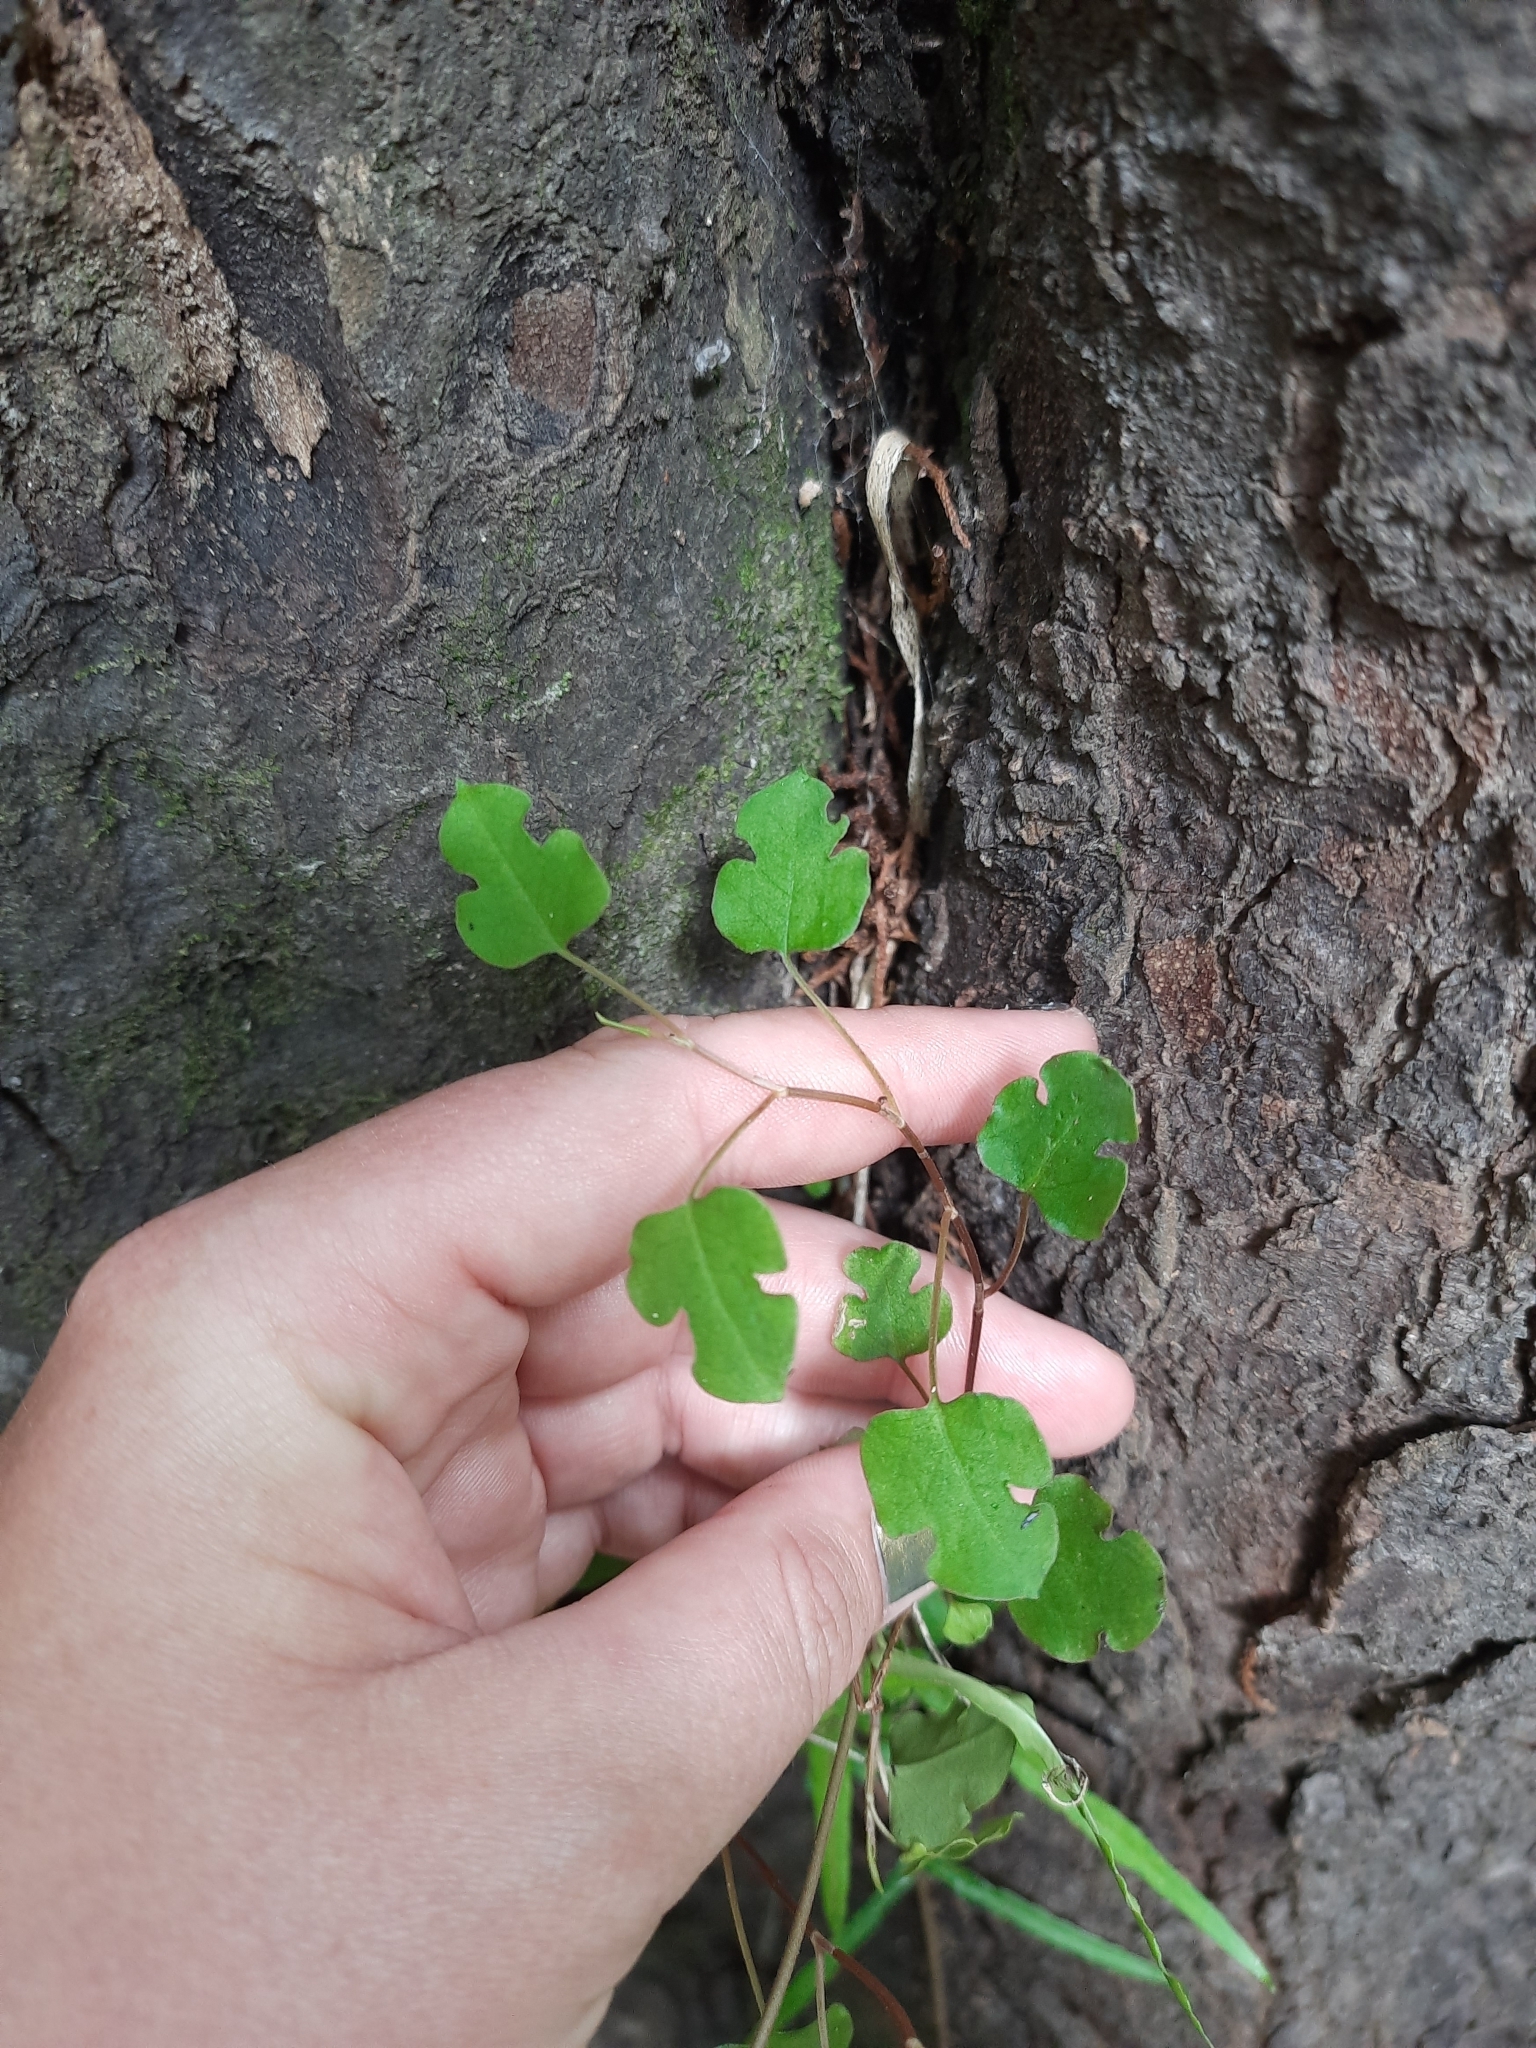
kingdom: Plantae
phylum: Tracheophyta
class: Magnoliopsida
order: Caryophyllales
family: Polygonaceae
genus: Muehlenbeckia
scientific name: Muehlenbeckia australis
